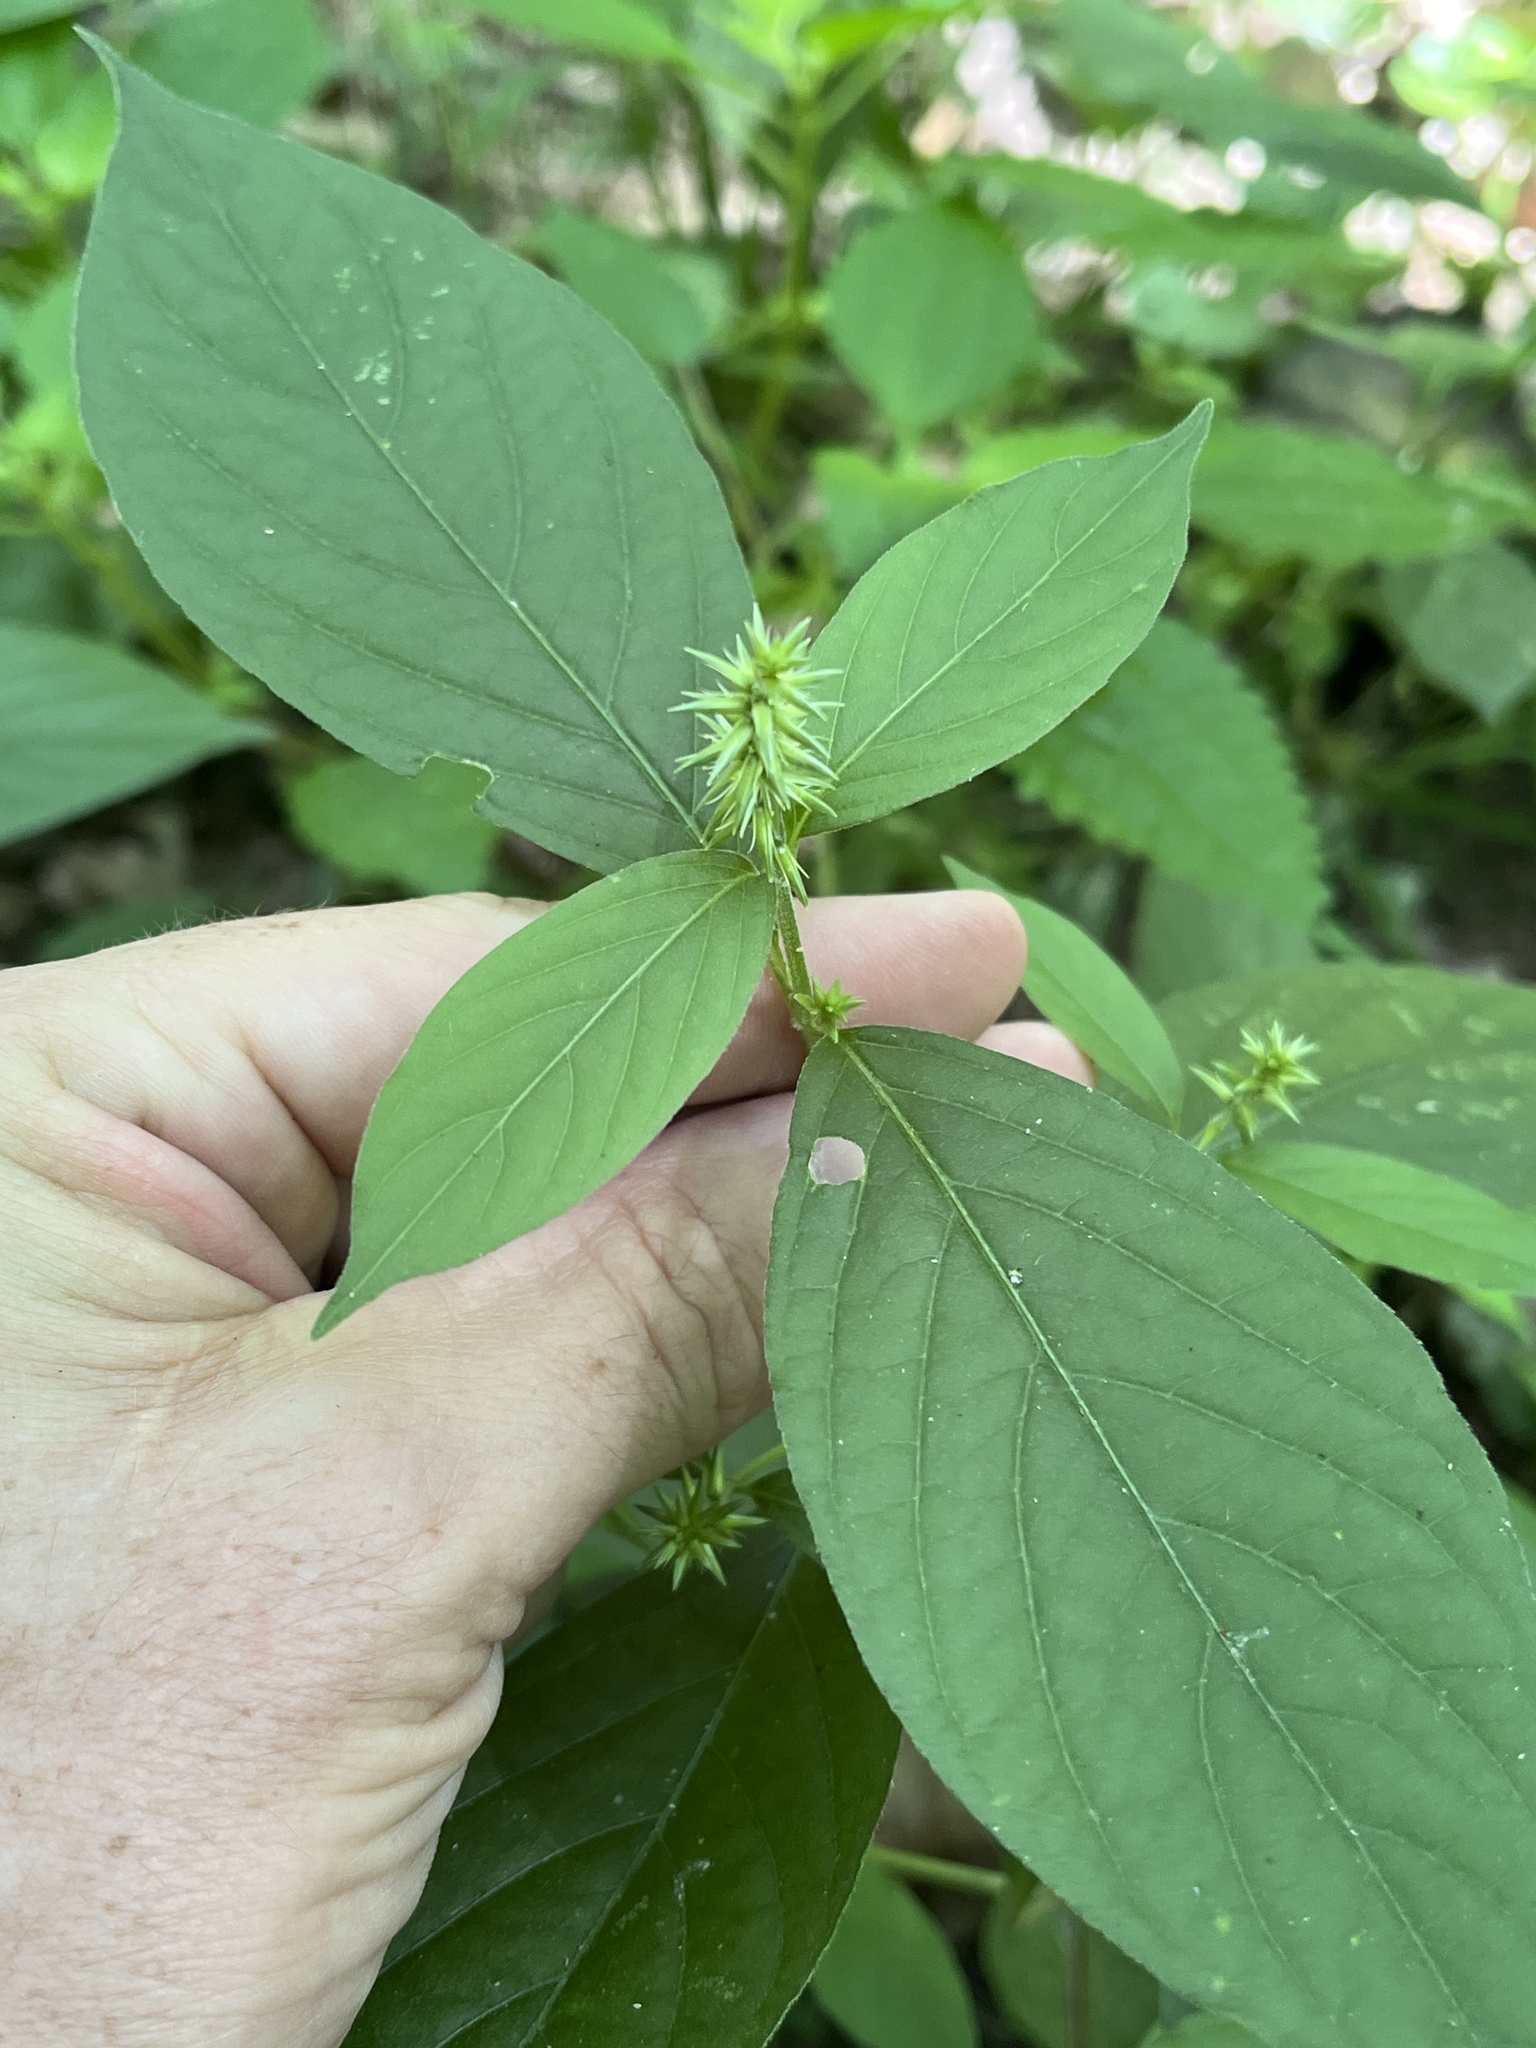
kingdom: Plantae
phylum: Tracheophyta
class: Magnoliopsida
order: Caryophyllales
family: Amaranthaceae
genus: Achyranthes
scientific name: Achyranthes bidentata
